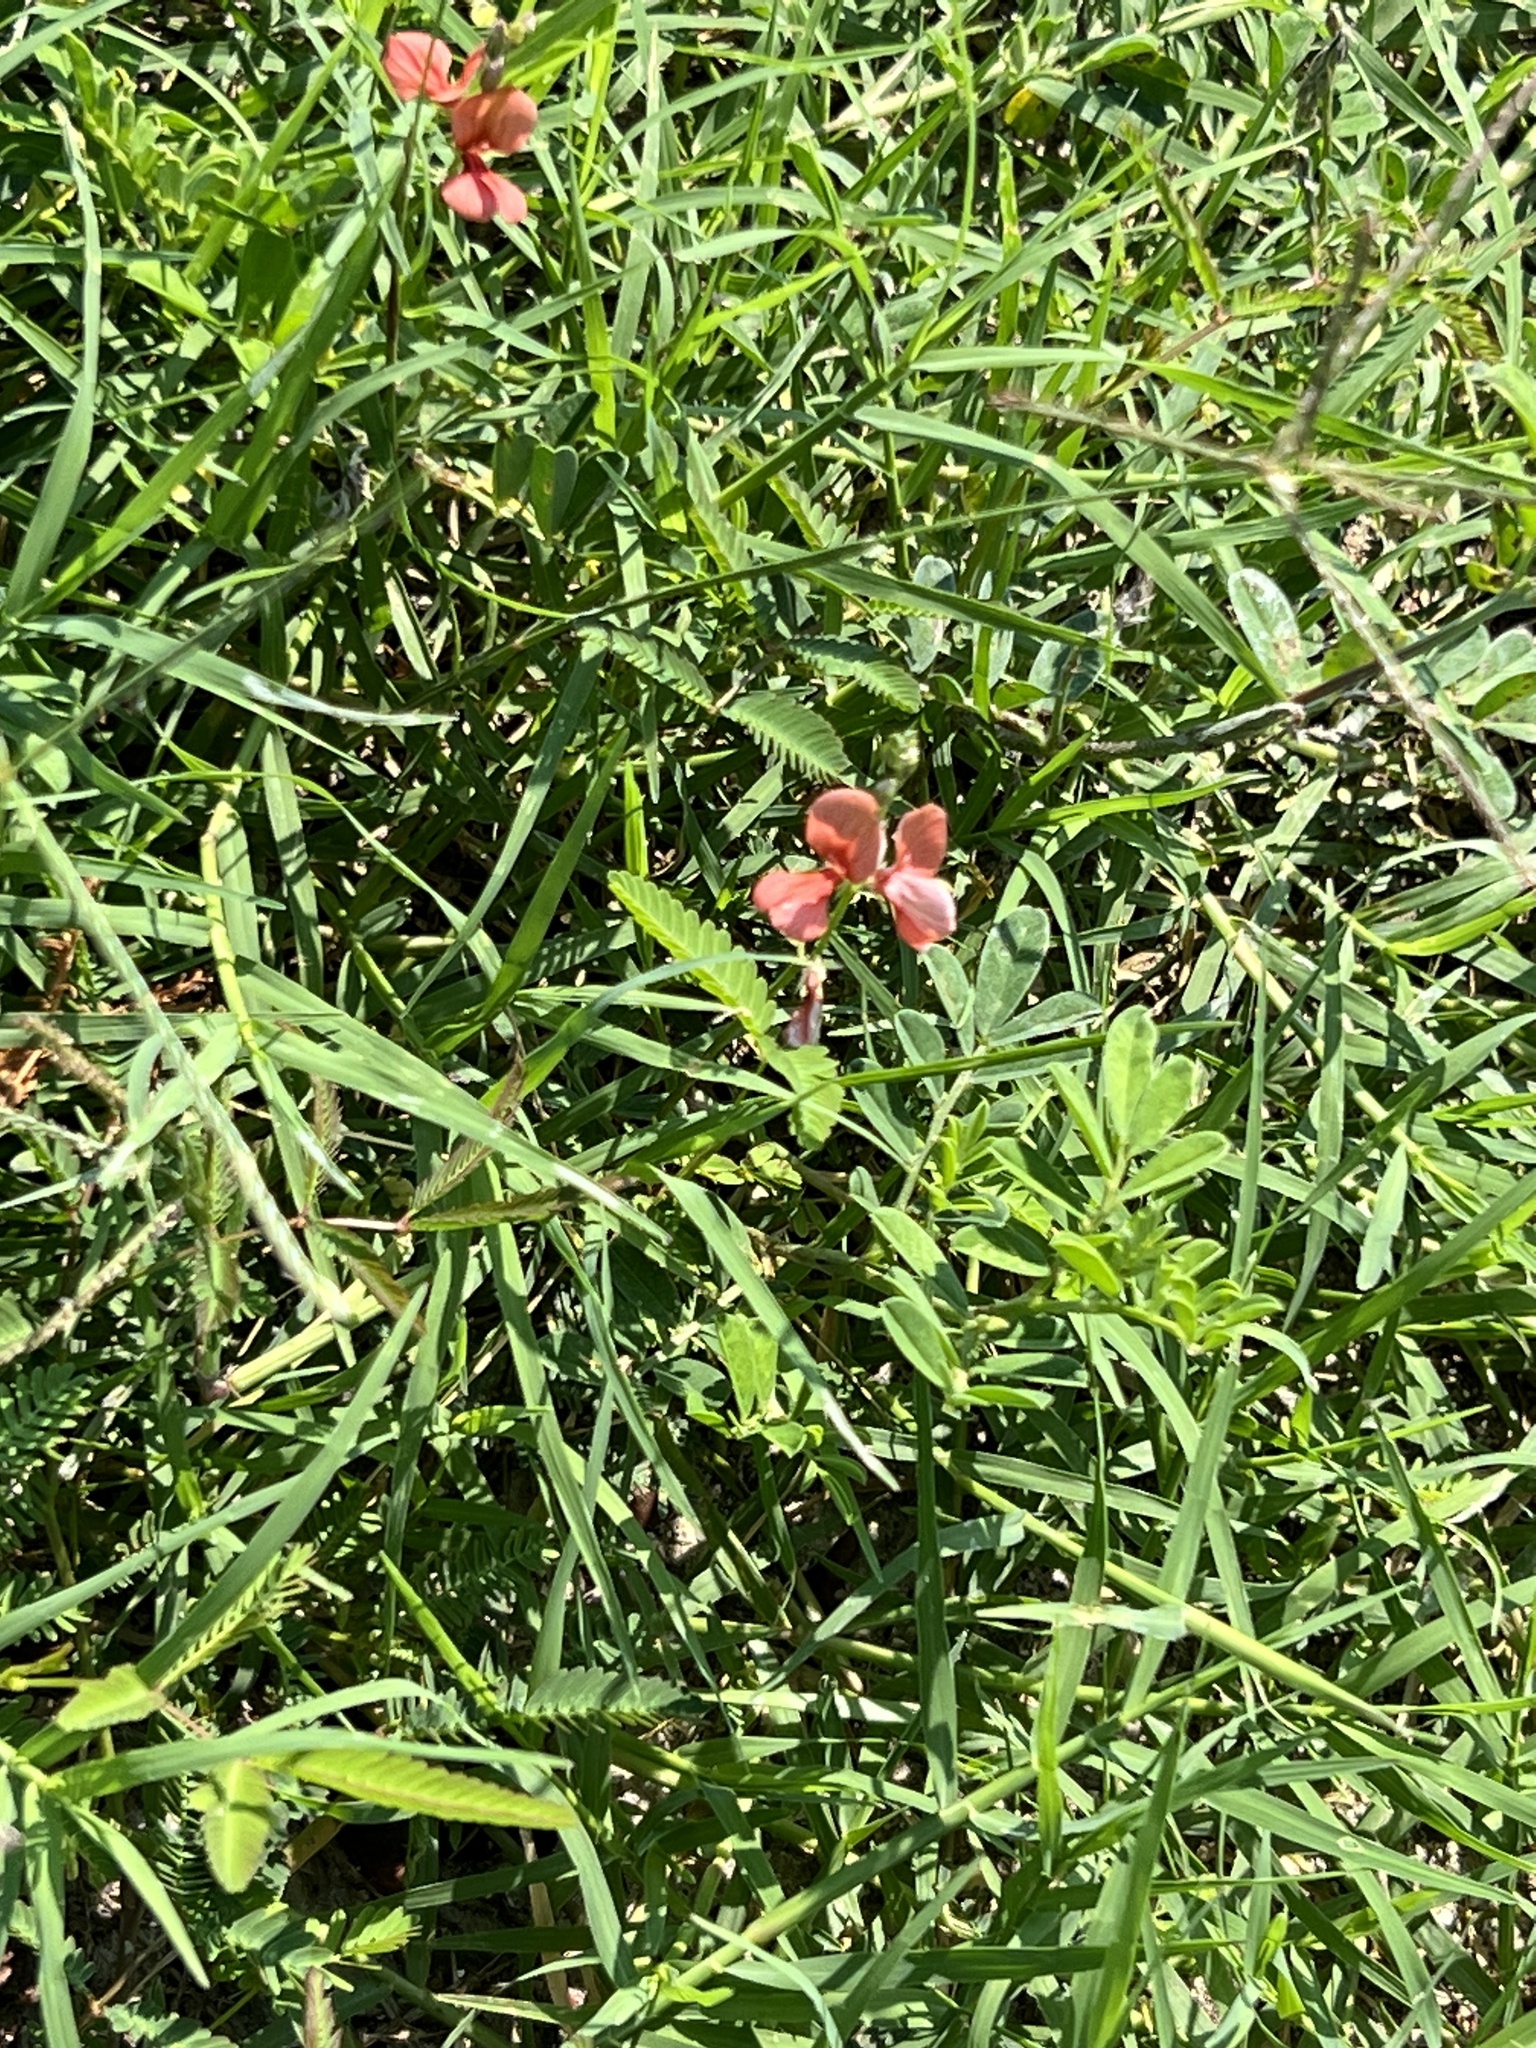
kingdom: Plantae
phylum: Tracheophyta
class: Magnoliopsida
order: Fabales
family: Fabaceae
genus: Indigofera
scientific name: Indigofera miniata
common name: Coast indigo
